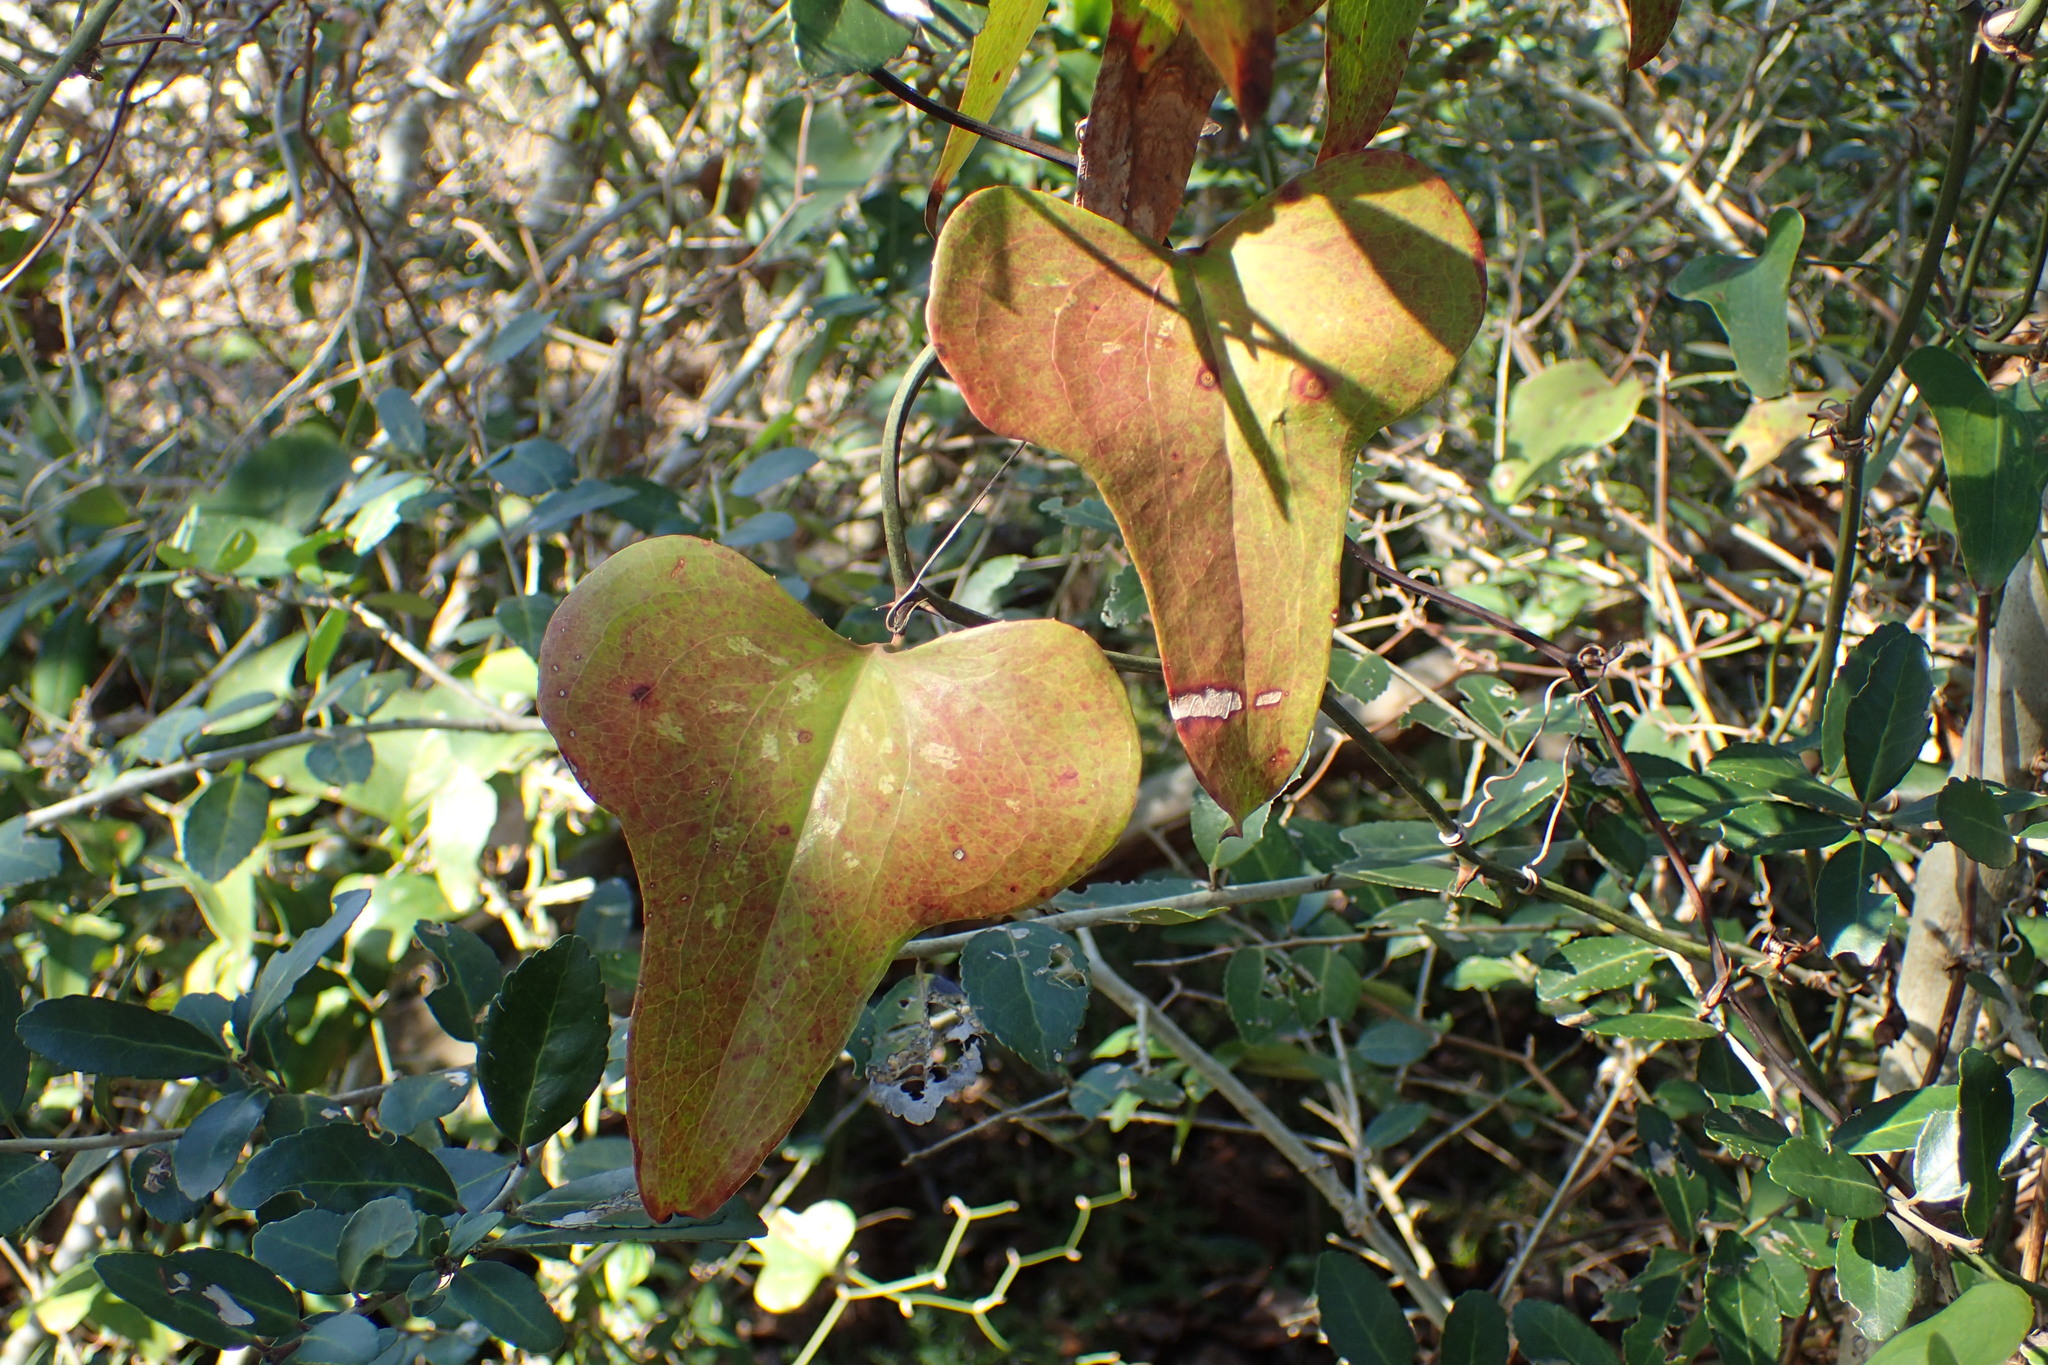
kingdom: Plantae
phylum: Tracheophyta
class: Liliopsida
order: Liliales
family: Smilacaceae
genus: Smilax
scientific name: Smilax bona-nox
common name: Catbrier
